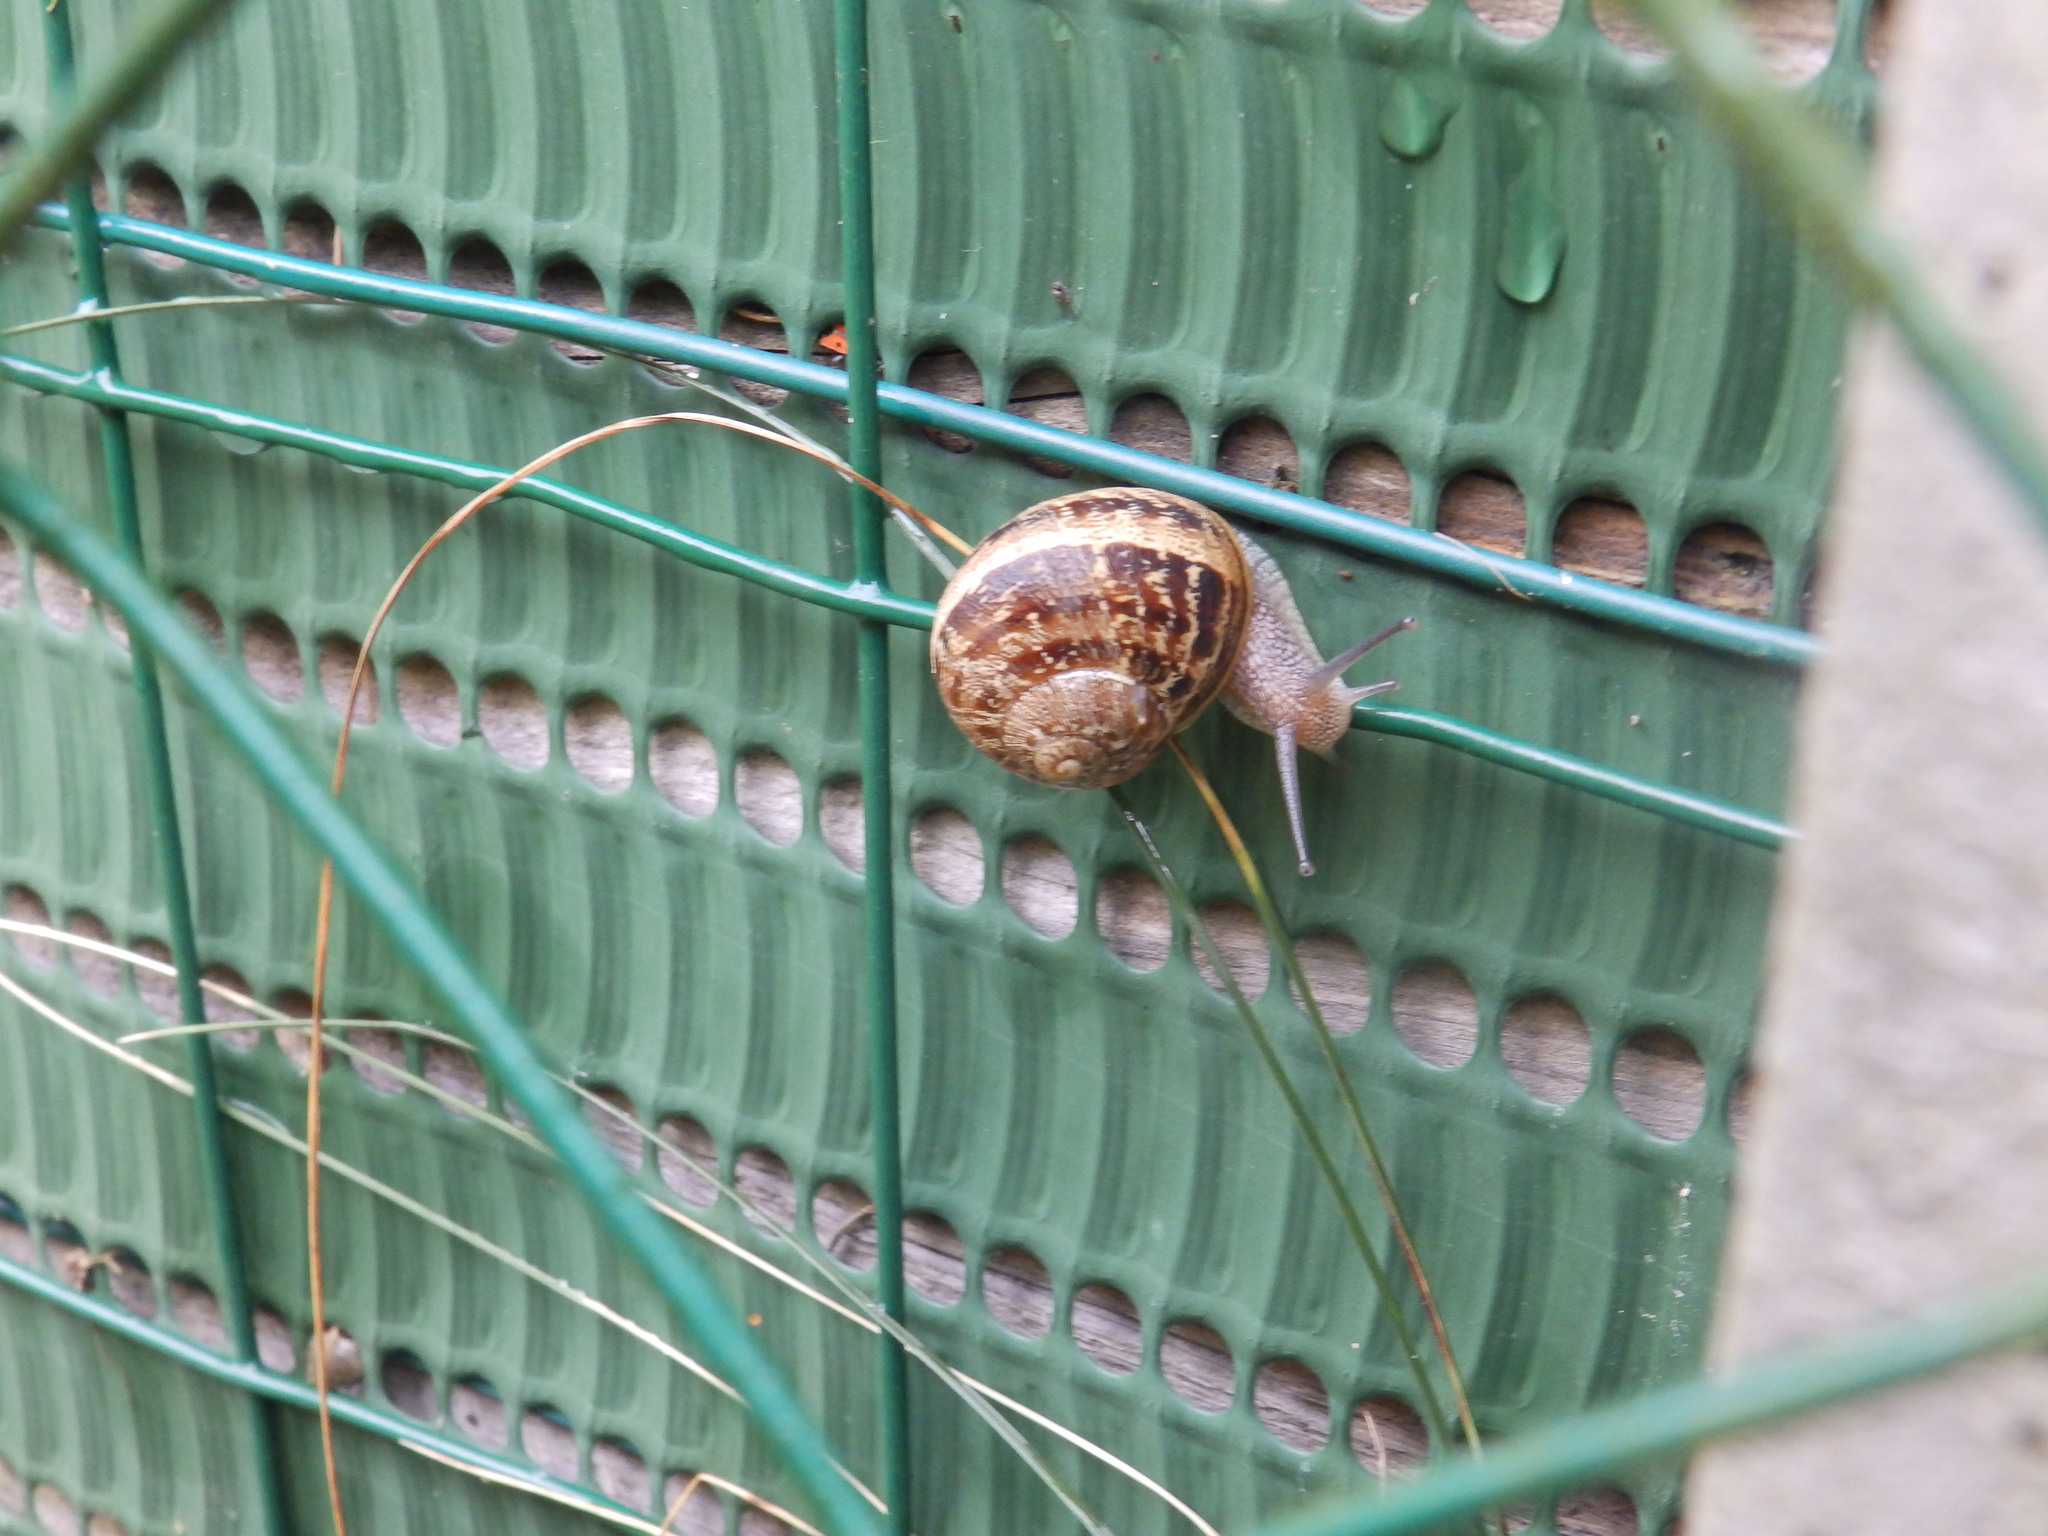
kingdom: Animalia
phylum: Mollusca
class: Gastropoda
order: Stylommatophora
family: Helicidae
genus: Cornu
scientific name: Cornu aspersum
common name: Brown garden snail
